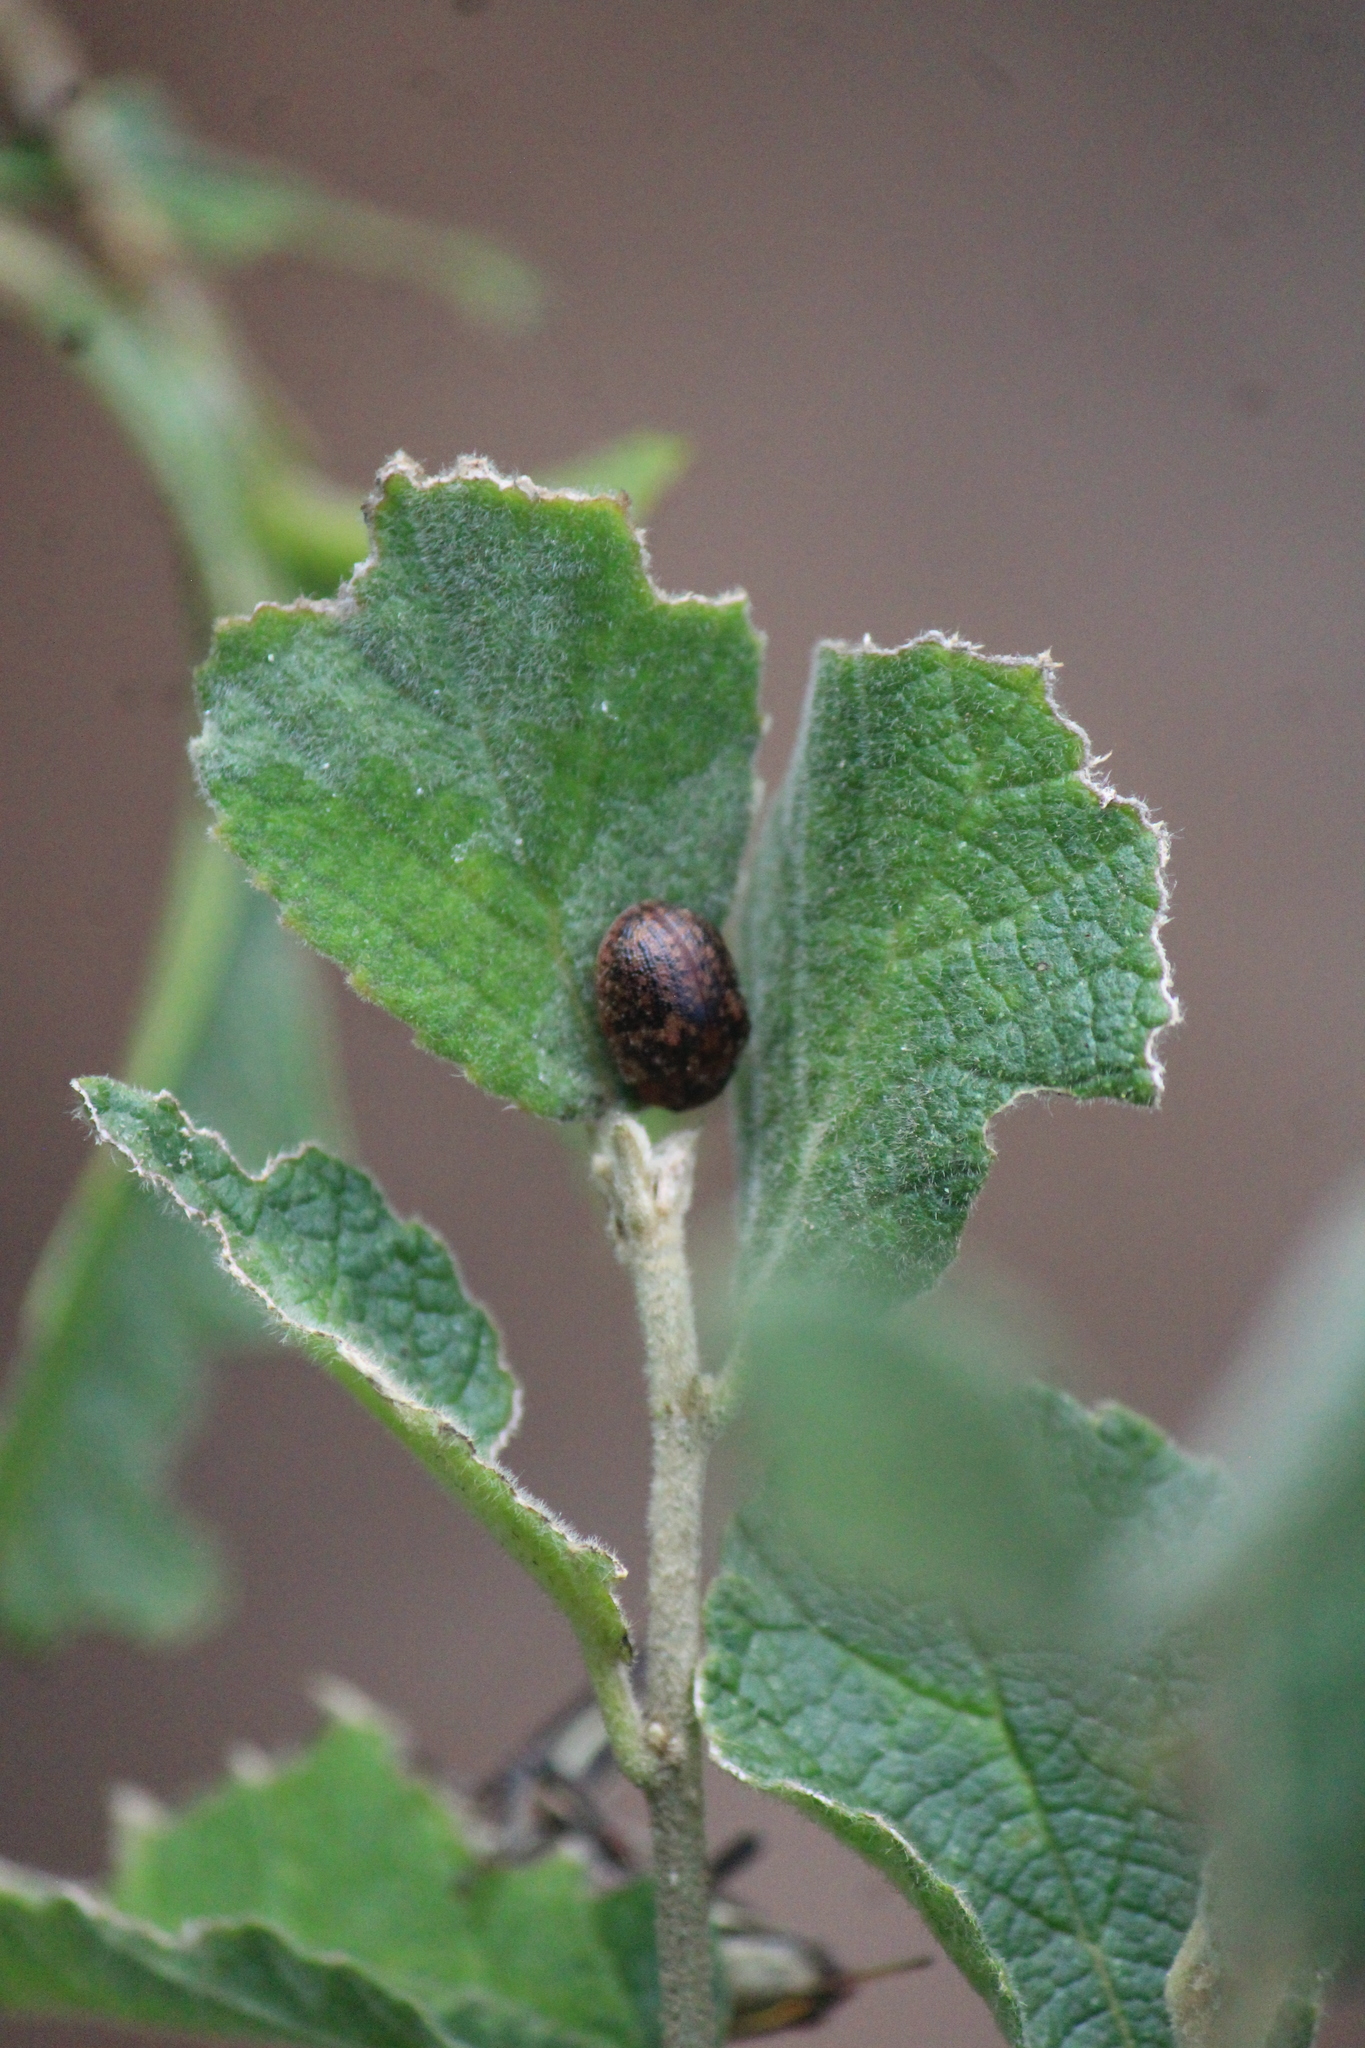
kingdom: Animalia
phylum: Arthropoda
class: Insecta
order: Coleoptera
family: Chrysomelidae
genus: Trachymela
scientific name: Trachymela sloanei
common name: Australian tortoise beetle
